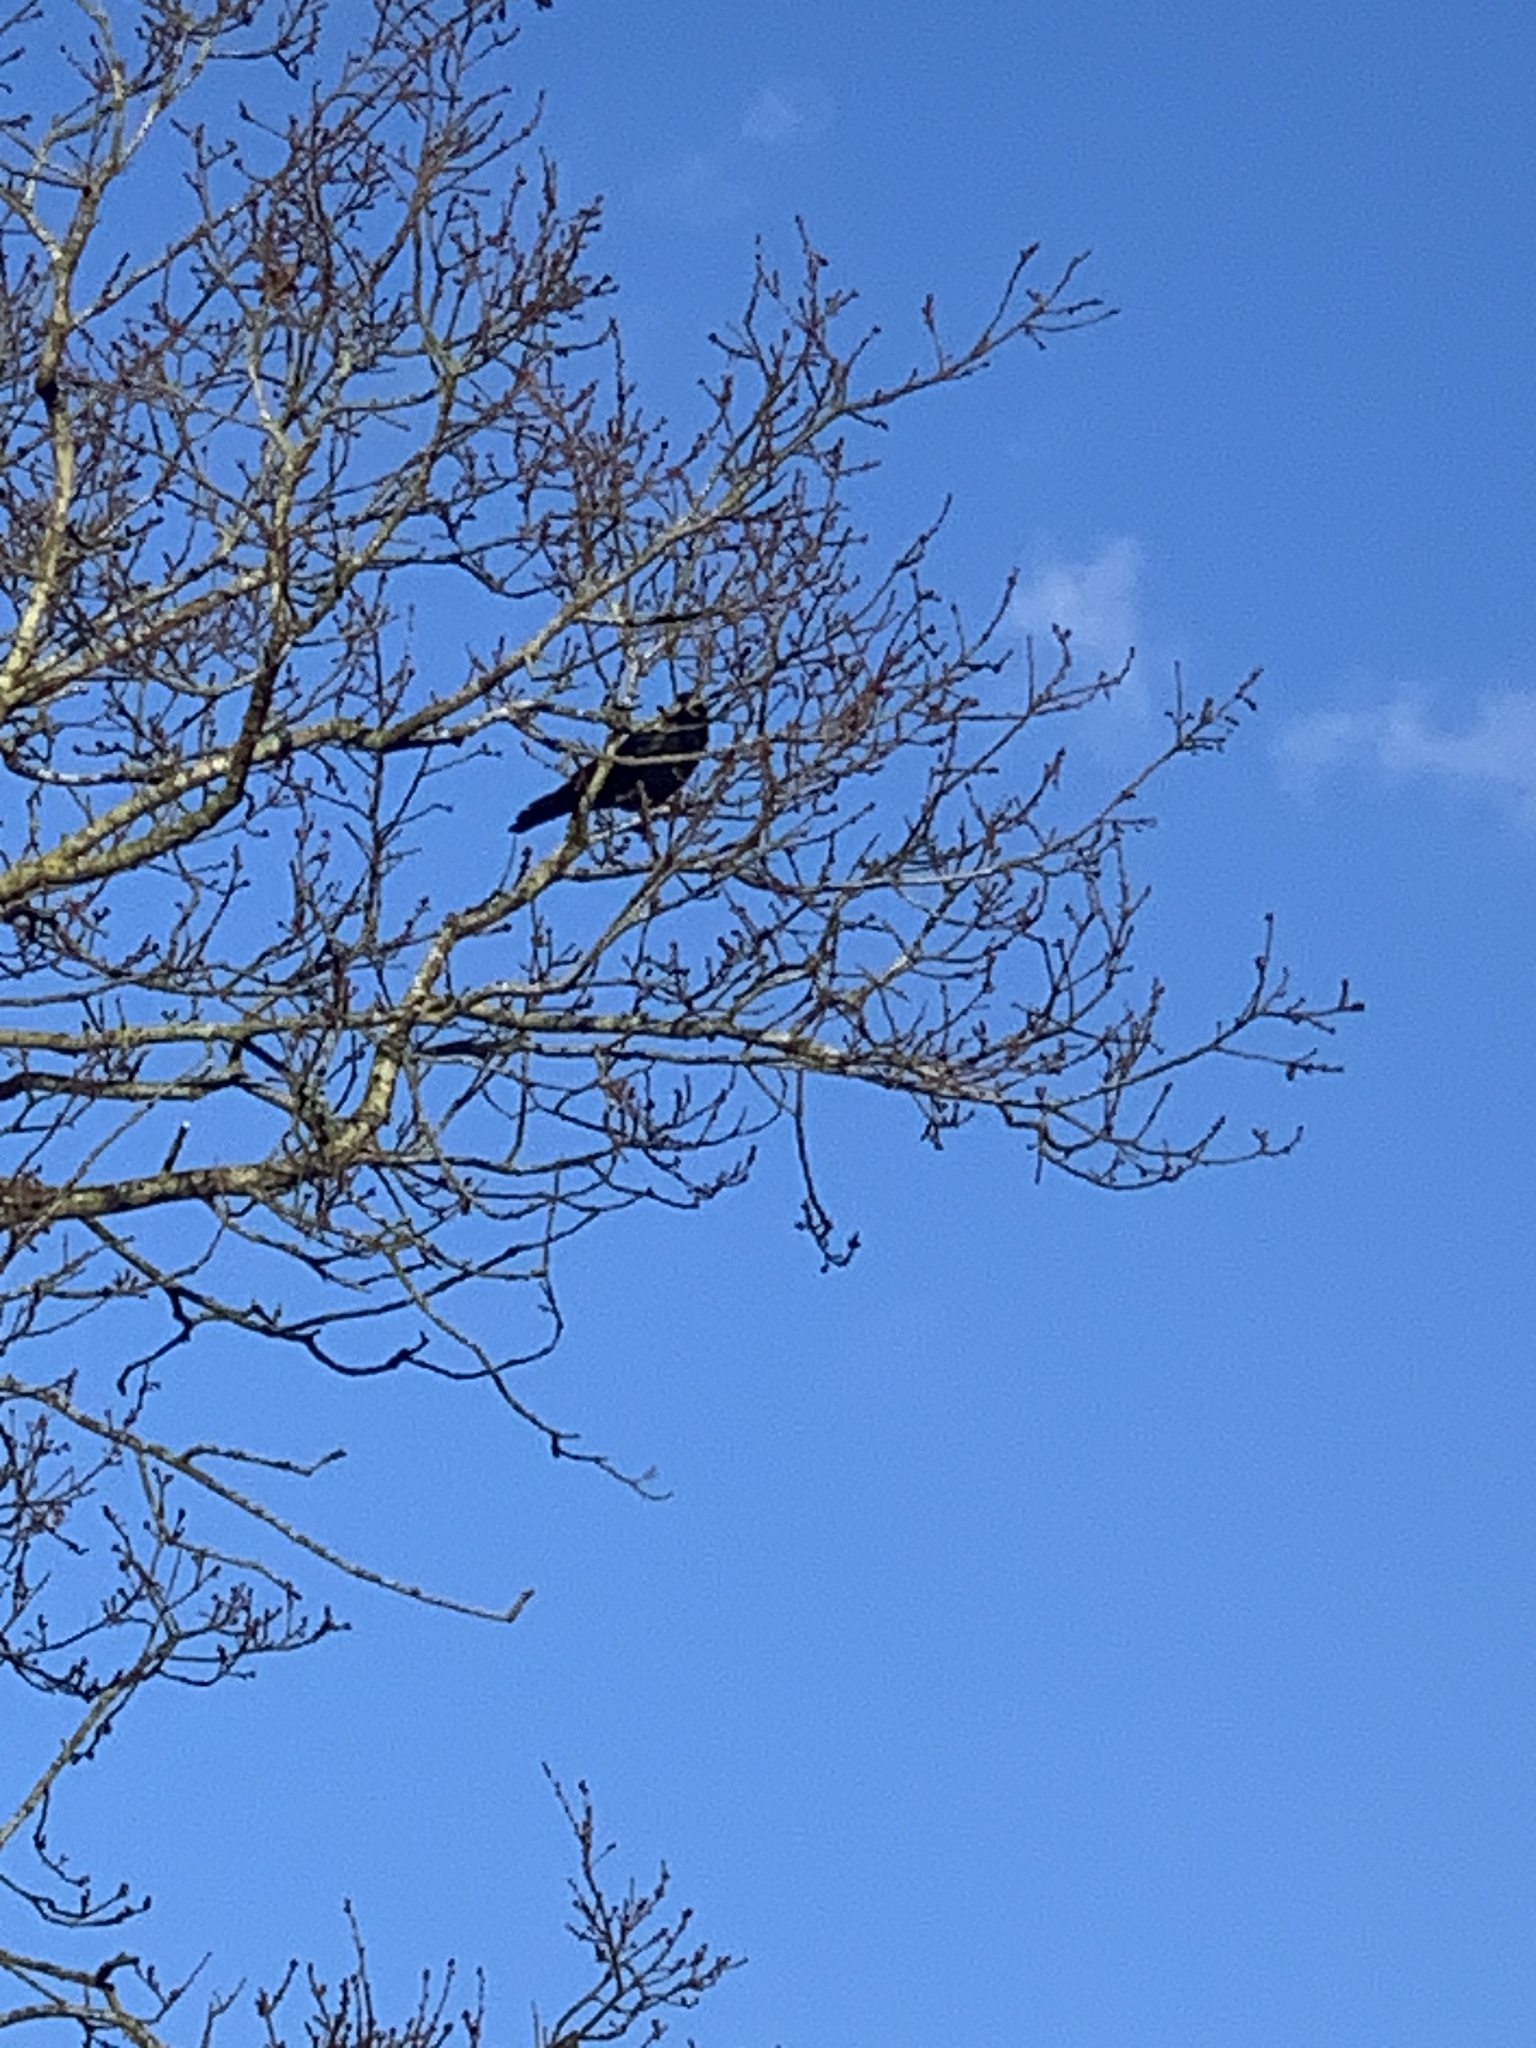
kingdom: Animalia
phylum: Chordata
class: Aves
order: Passeriformes
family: Corvidae
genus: Corvus
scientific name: Corvus corone
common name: Carrion crow
